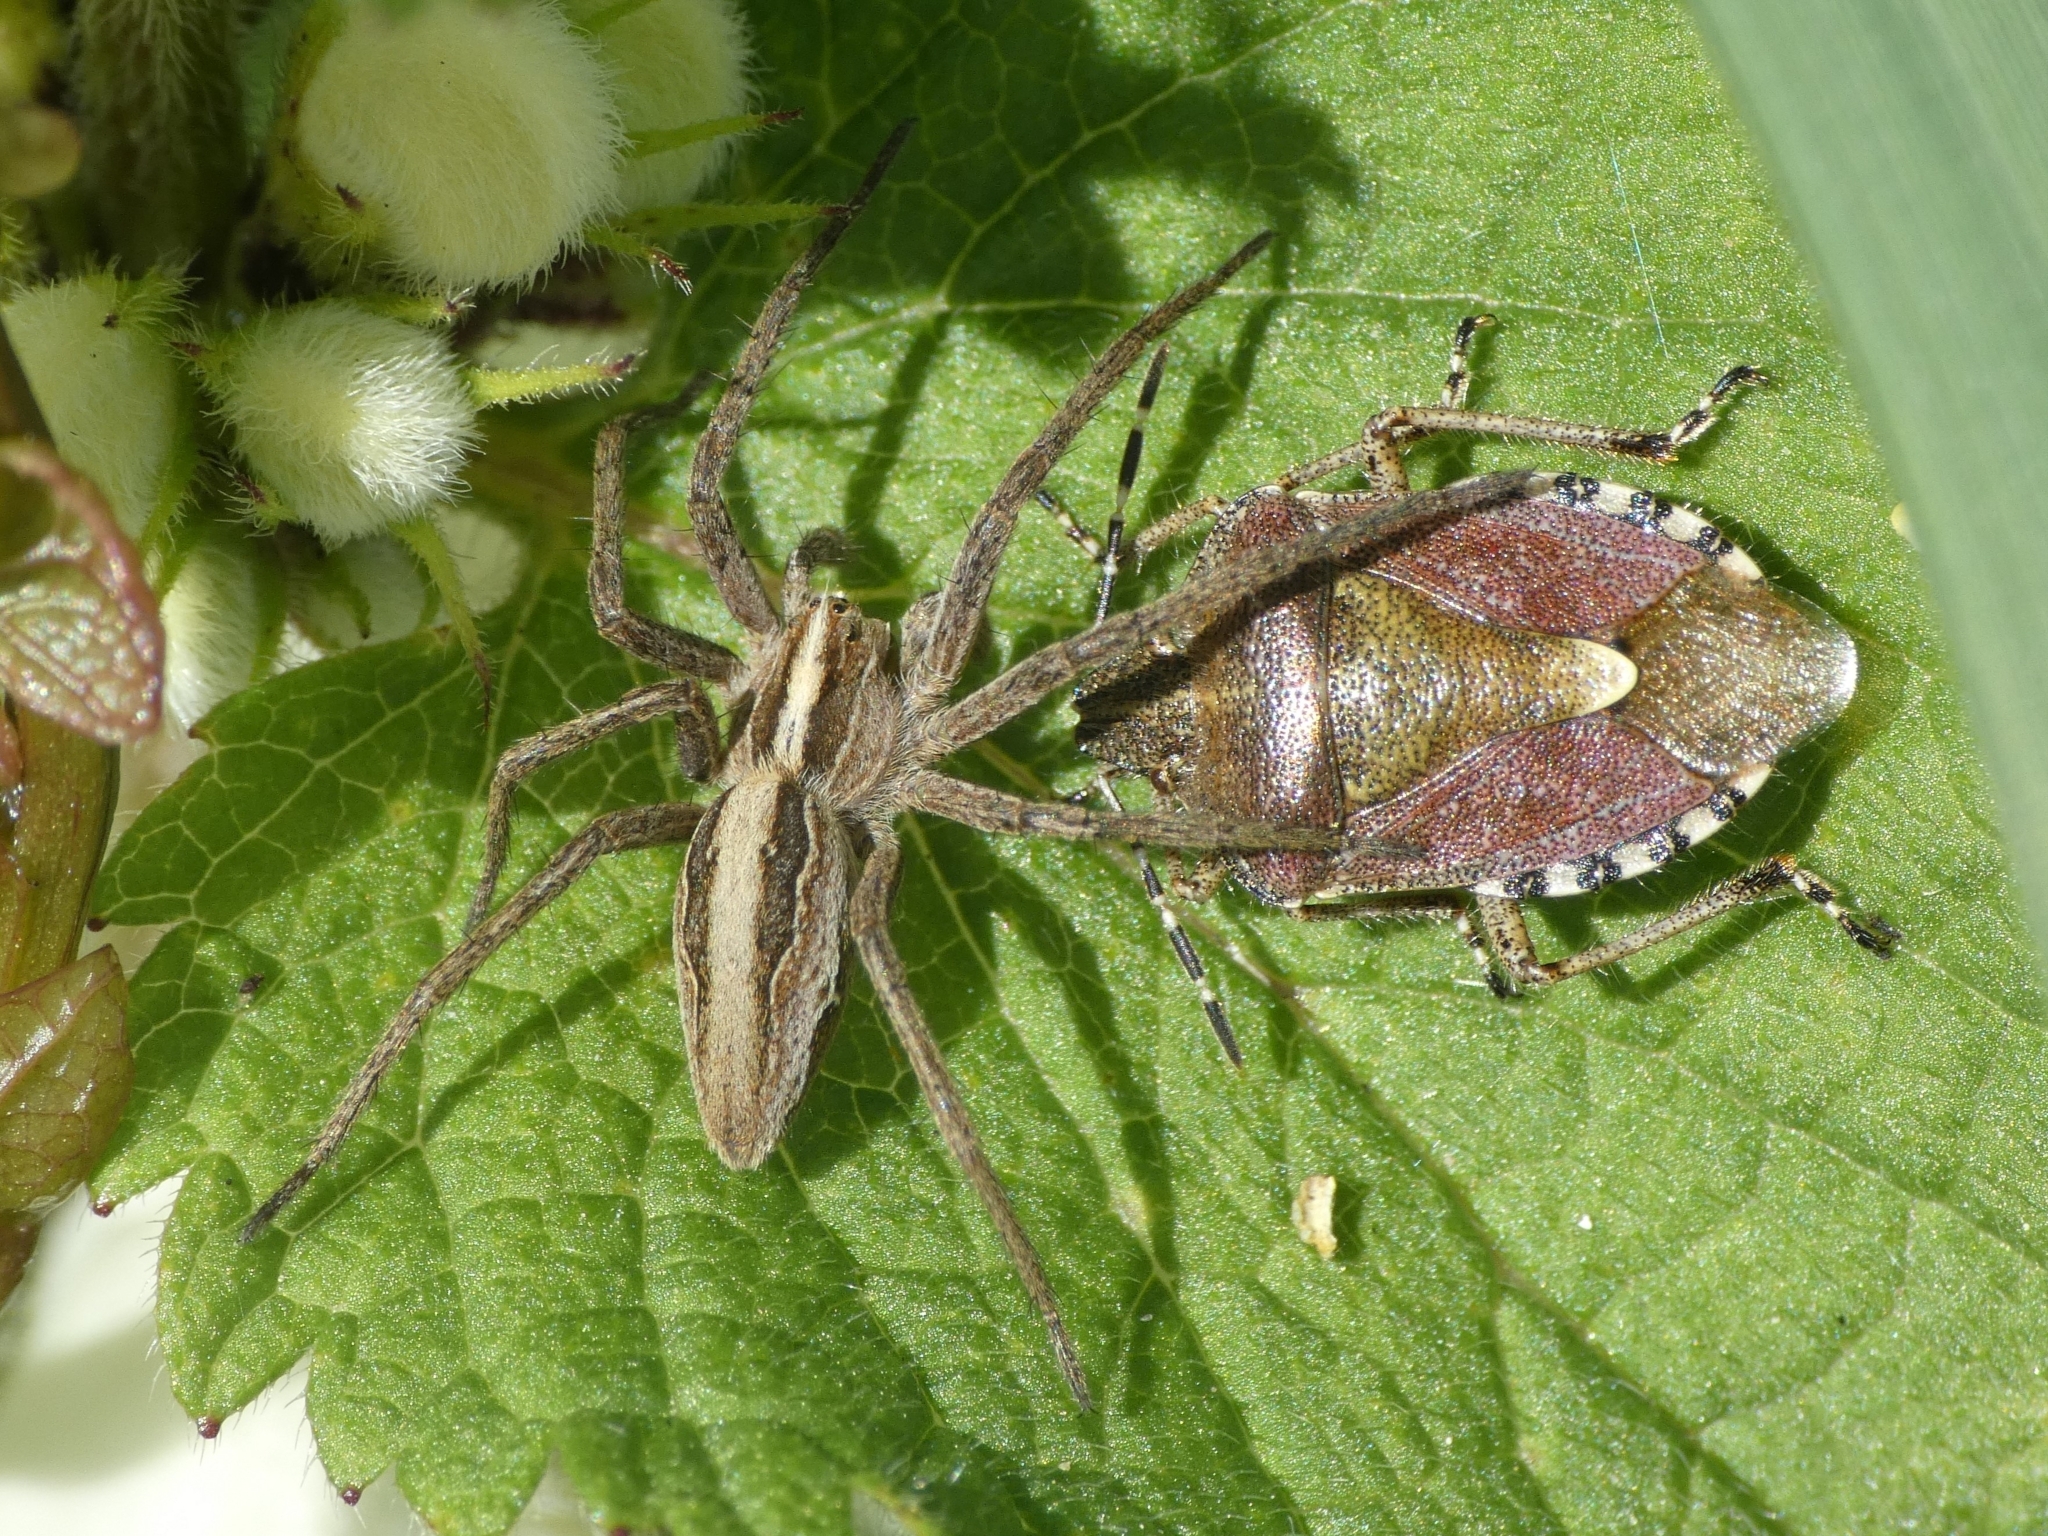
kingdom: Animalia
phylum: Arthropoda
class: Arachnida
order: Araneae
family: Pisauridae
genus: Pisaura
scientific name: Pisaura mirabilis
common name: Tent spider
